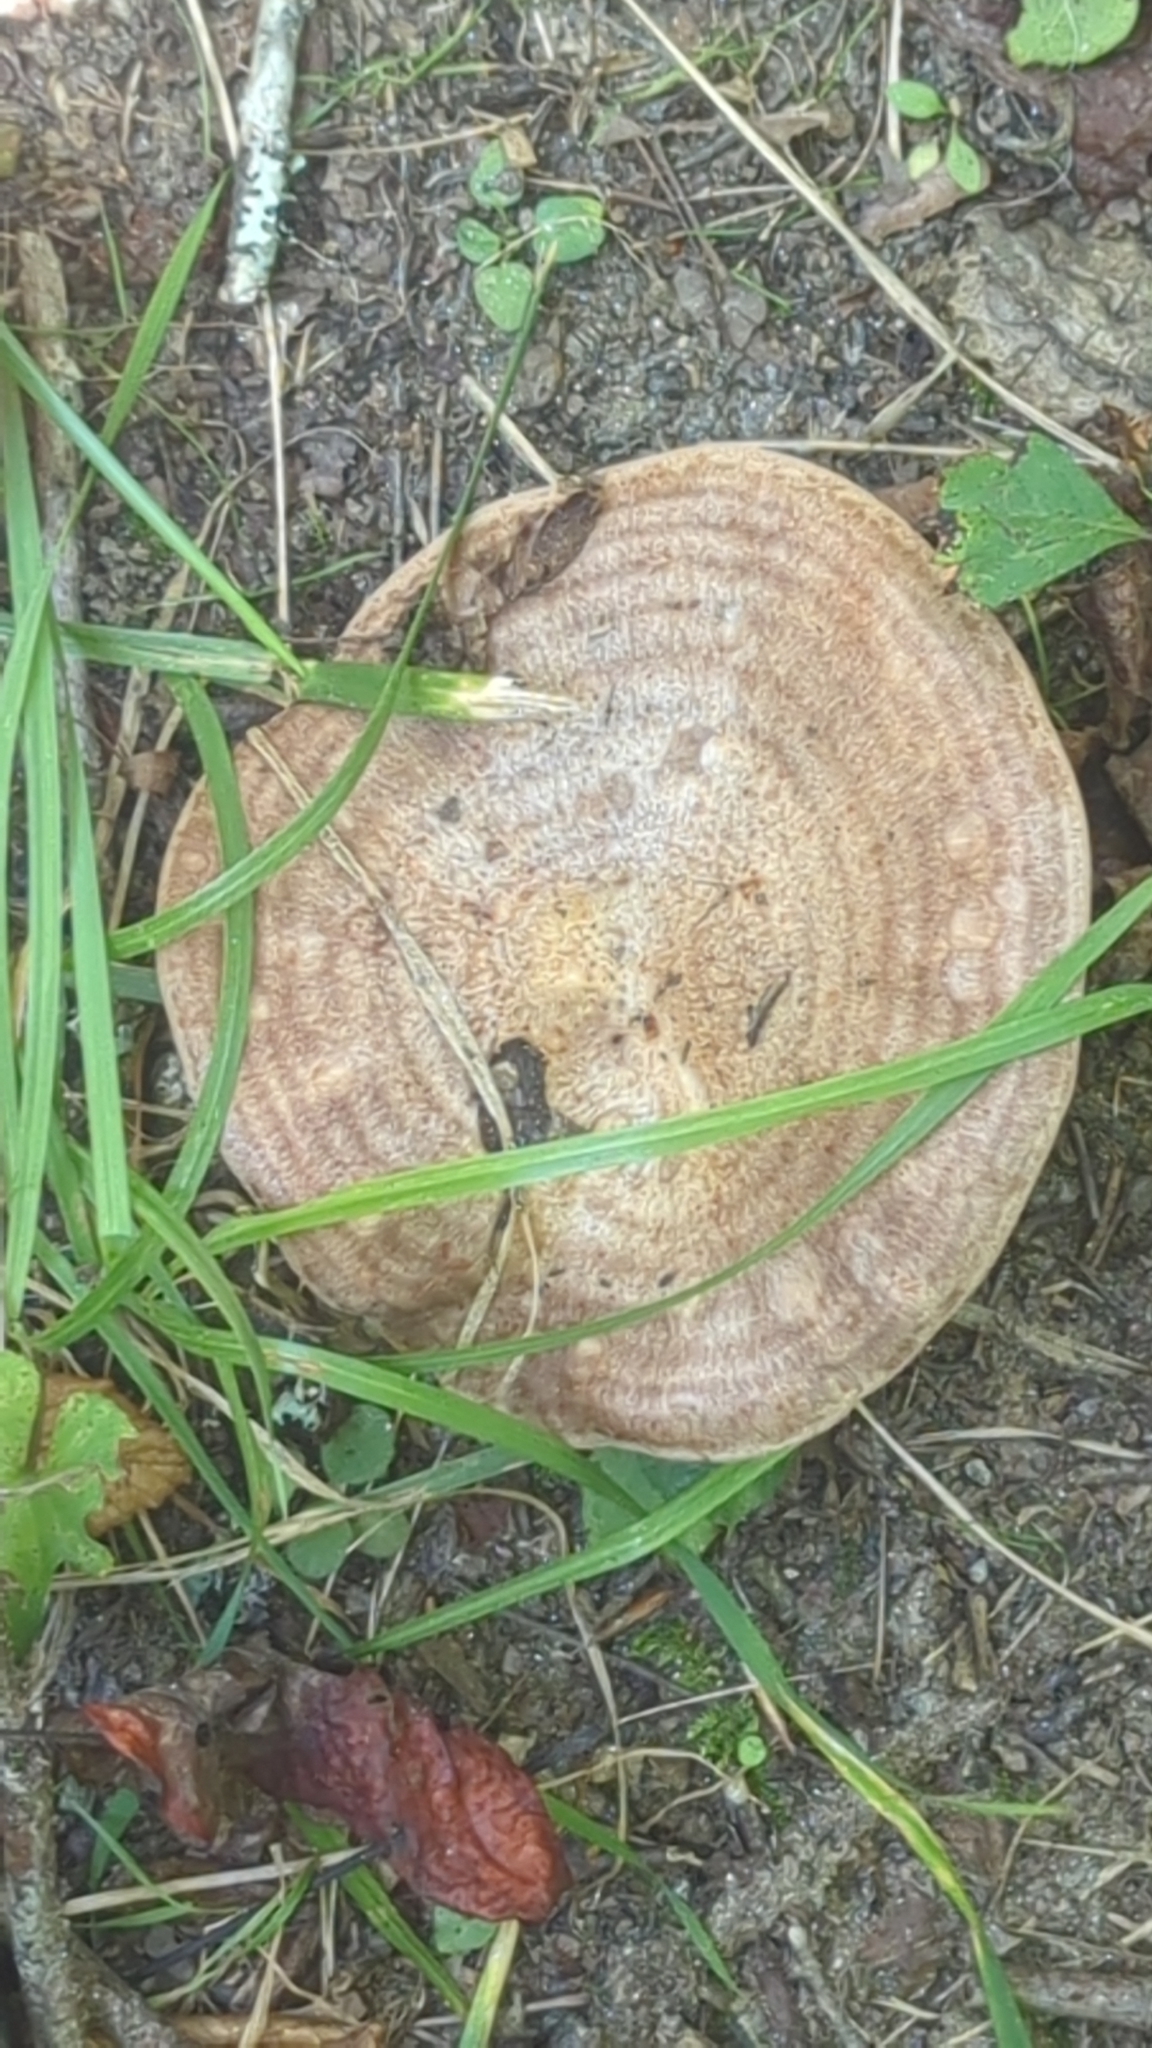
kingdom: Fungi
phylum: Basidiomycota
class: Agaricomycetes
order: Russulales
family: Russulaceae
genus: Lactarius
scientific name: Lactarius argillaceifolius
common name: Clay-gilled milkcap
